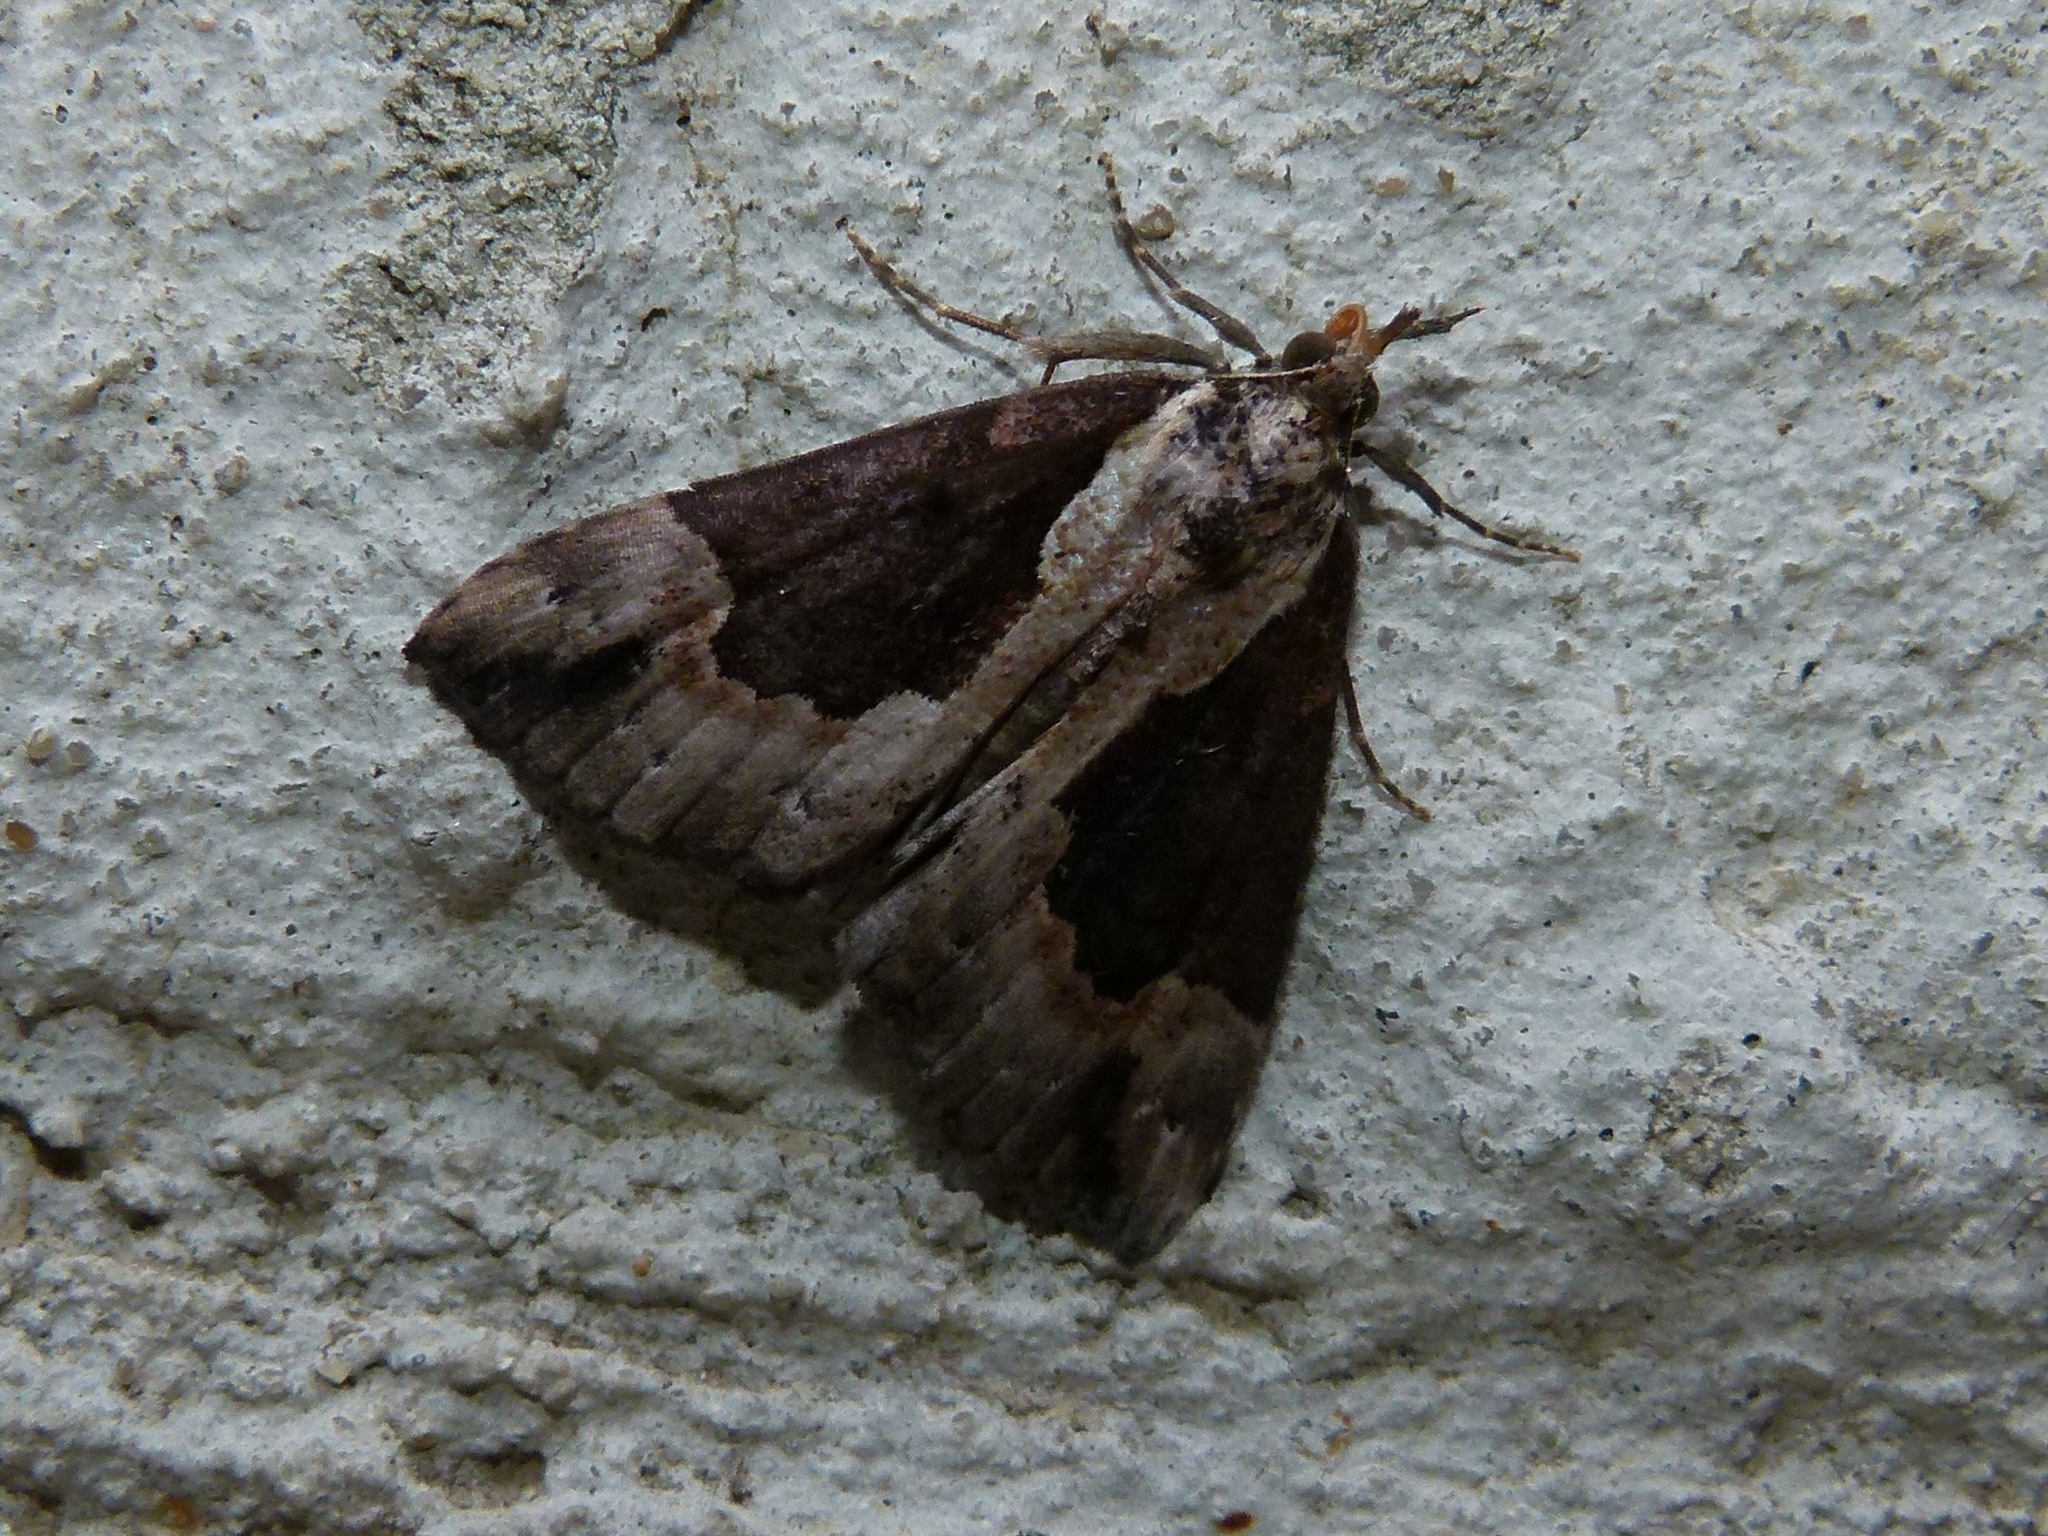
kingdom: Animalia
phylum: Arthropoda
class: Insecta
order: Lepidoptera
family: Erebidae
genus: Hypena
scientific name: Hypena baltimoralis
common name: Baltimore snout
